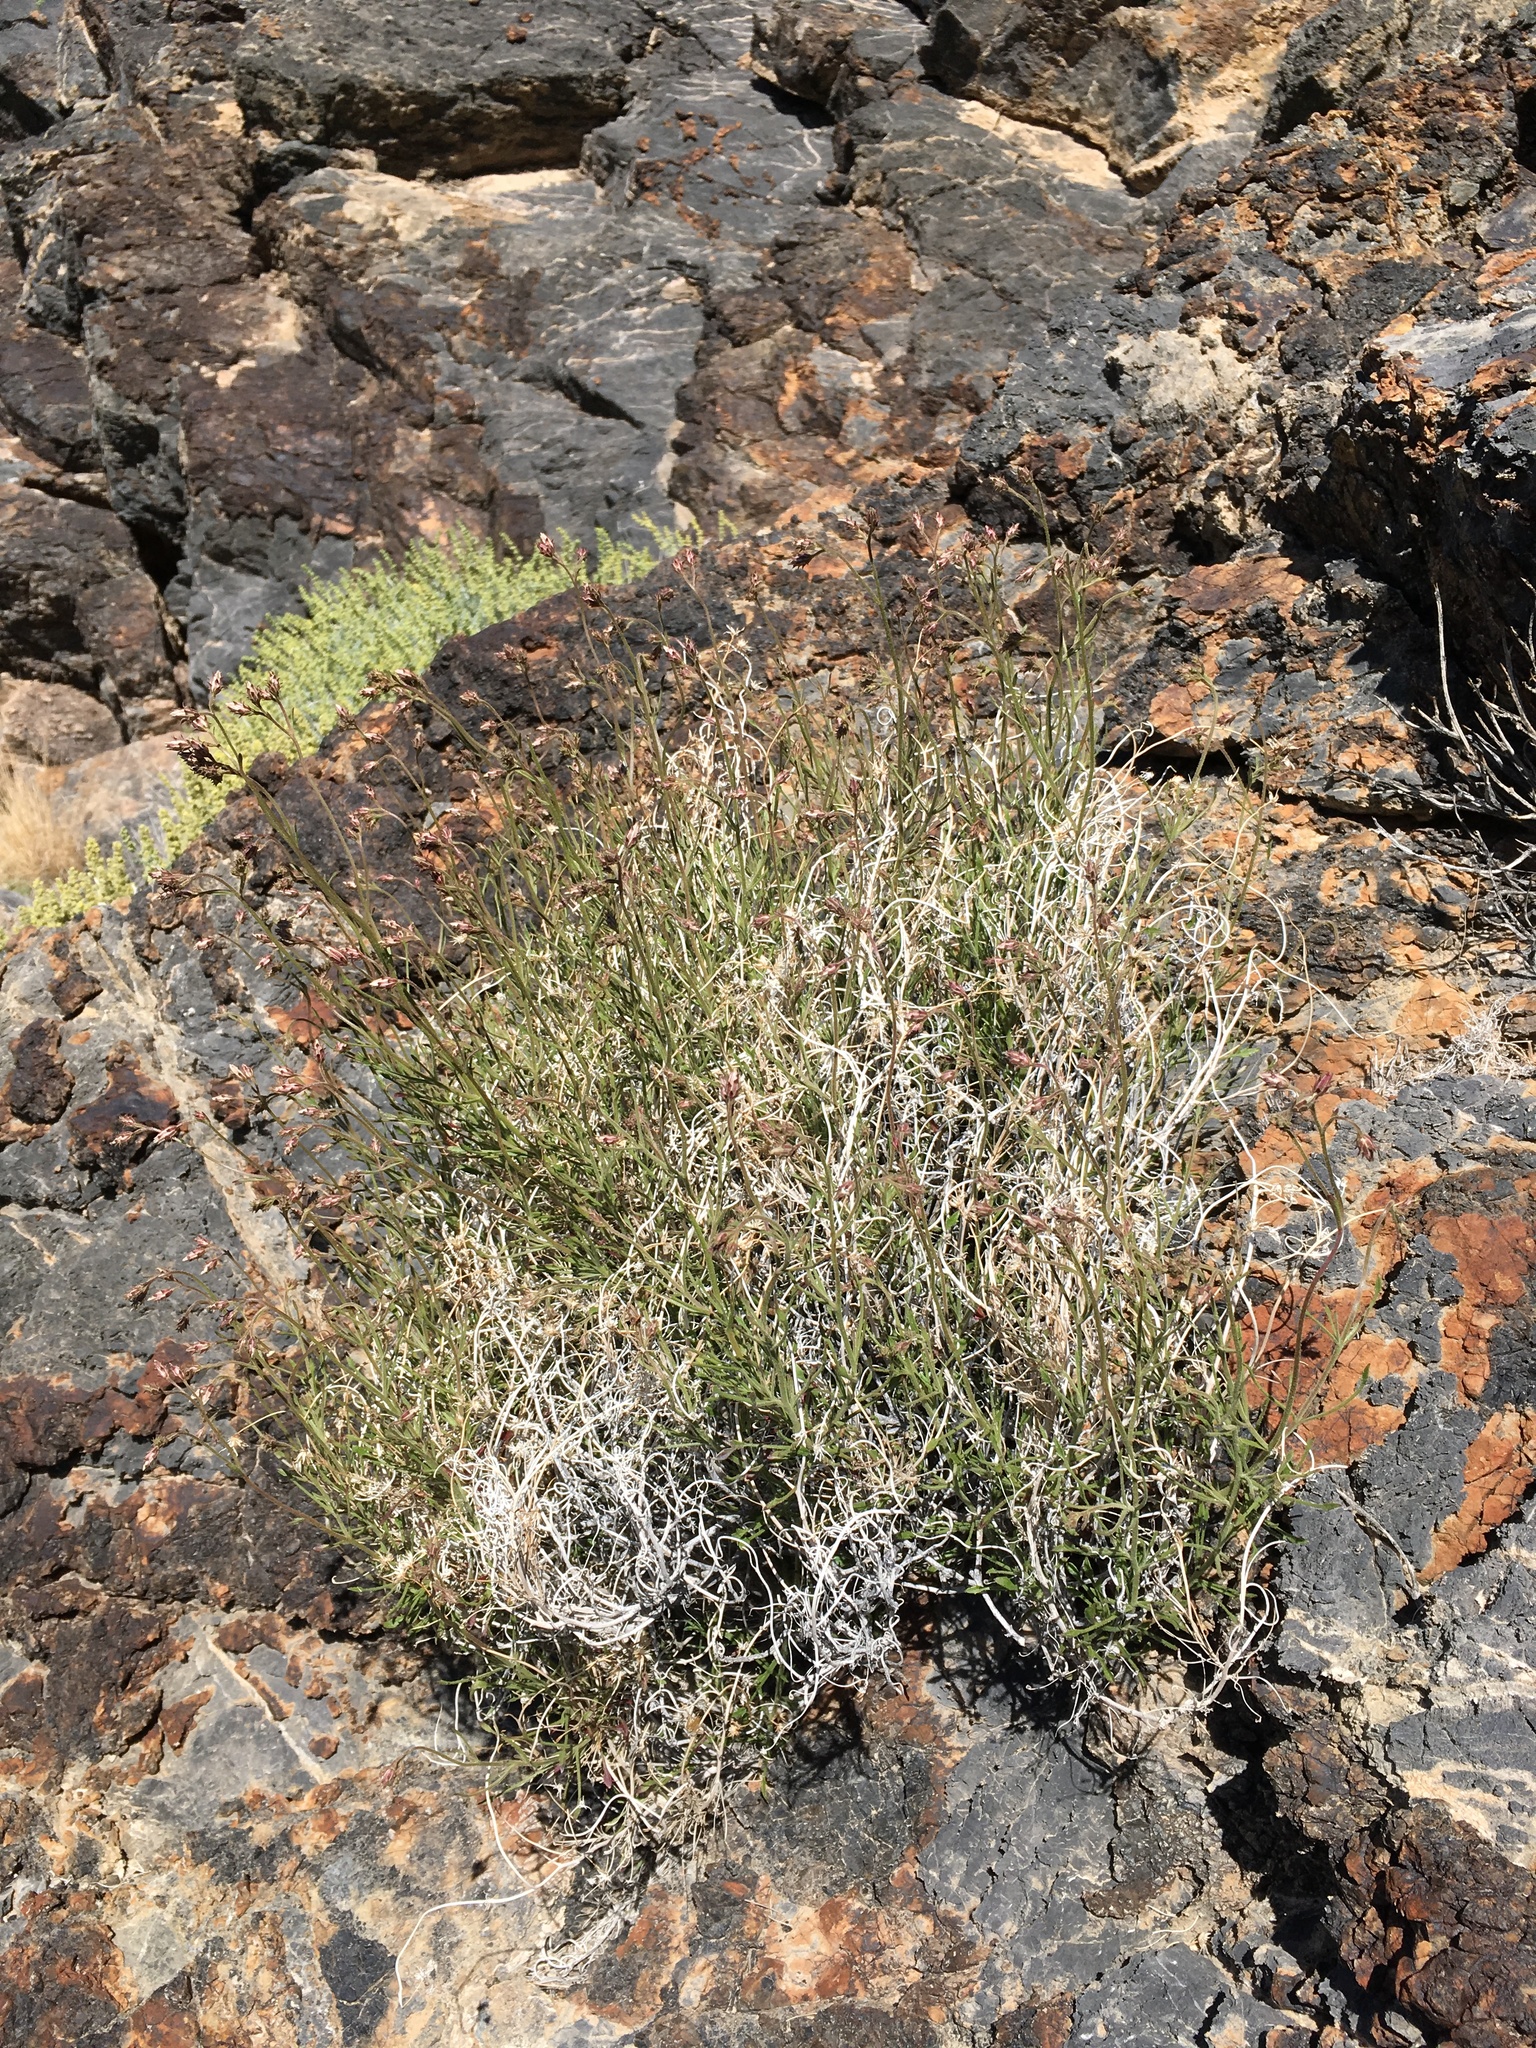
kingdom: Plantae
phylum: Tracheophyta
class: Magnoliopsida
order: Asterales
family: Asteraceae
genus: Pleurocoronis
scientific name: Pleurocoronis pluriseta
